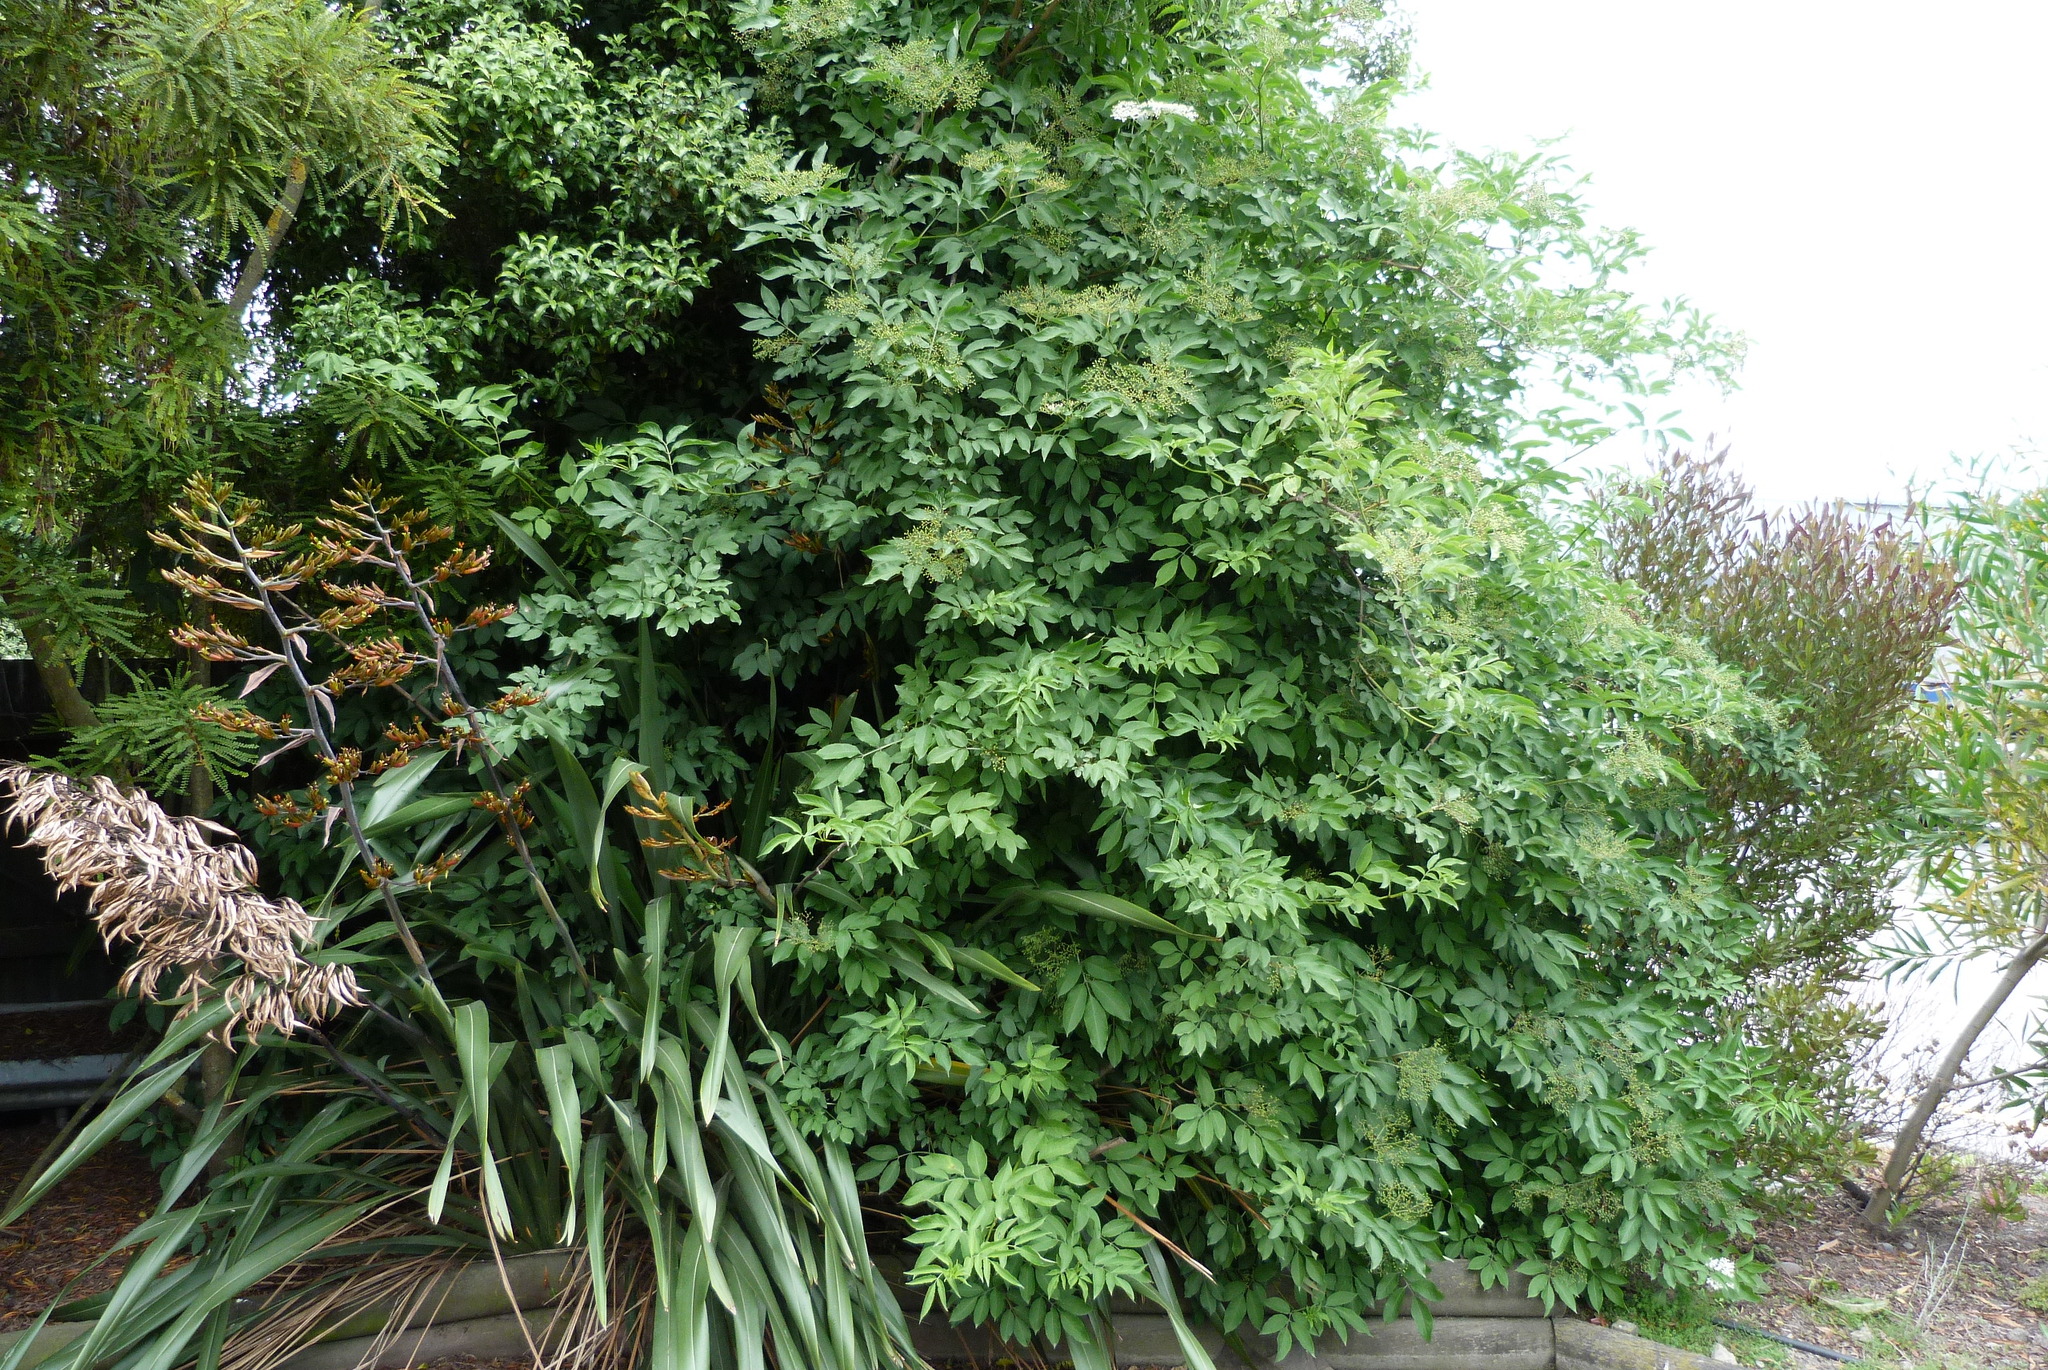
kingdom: Plantae
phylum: Tracheophyta
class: Magnoliopsida
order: Dipsacales
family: Viburnaceae
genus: Sambucus
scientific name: Sambucus nigra
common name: Elder
